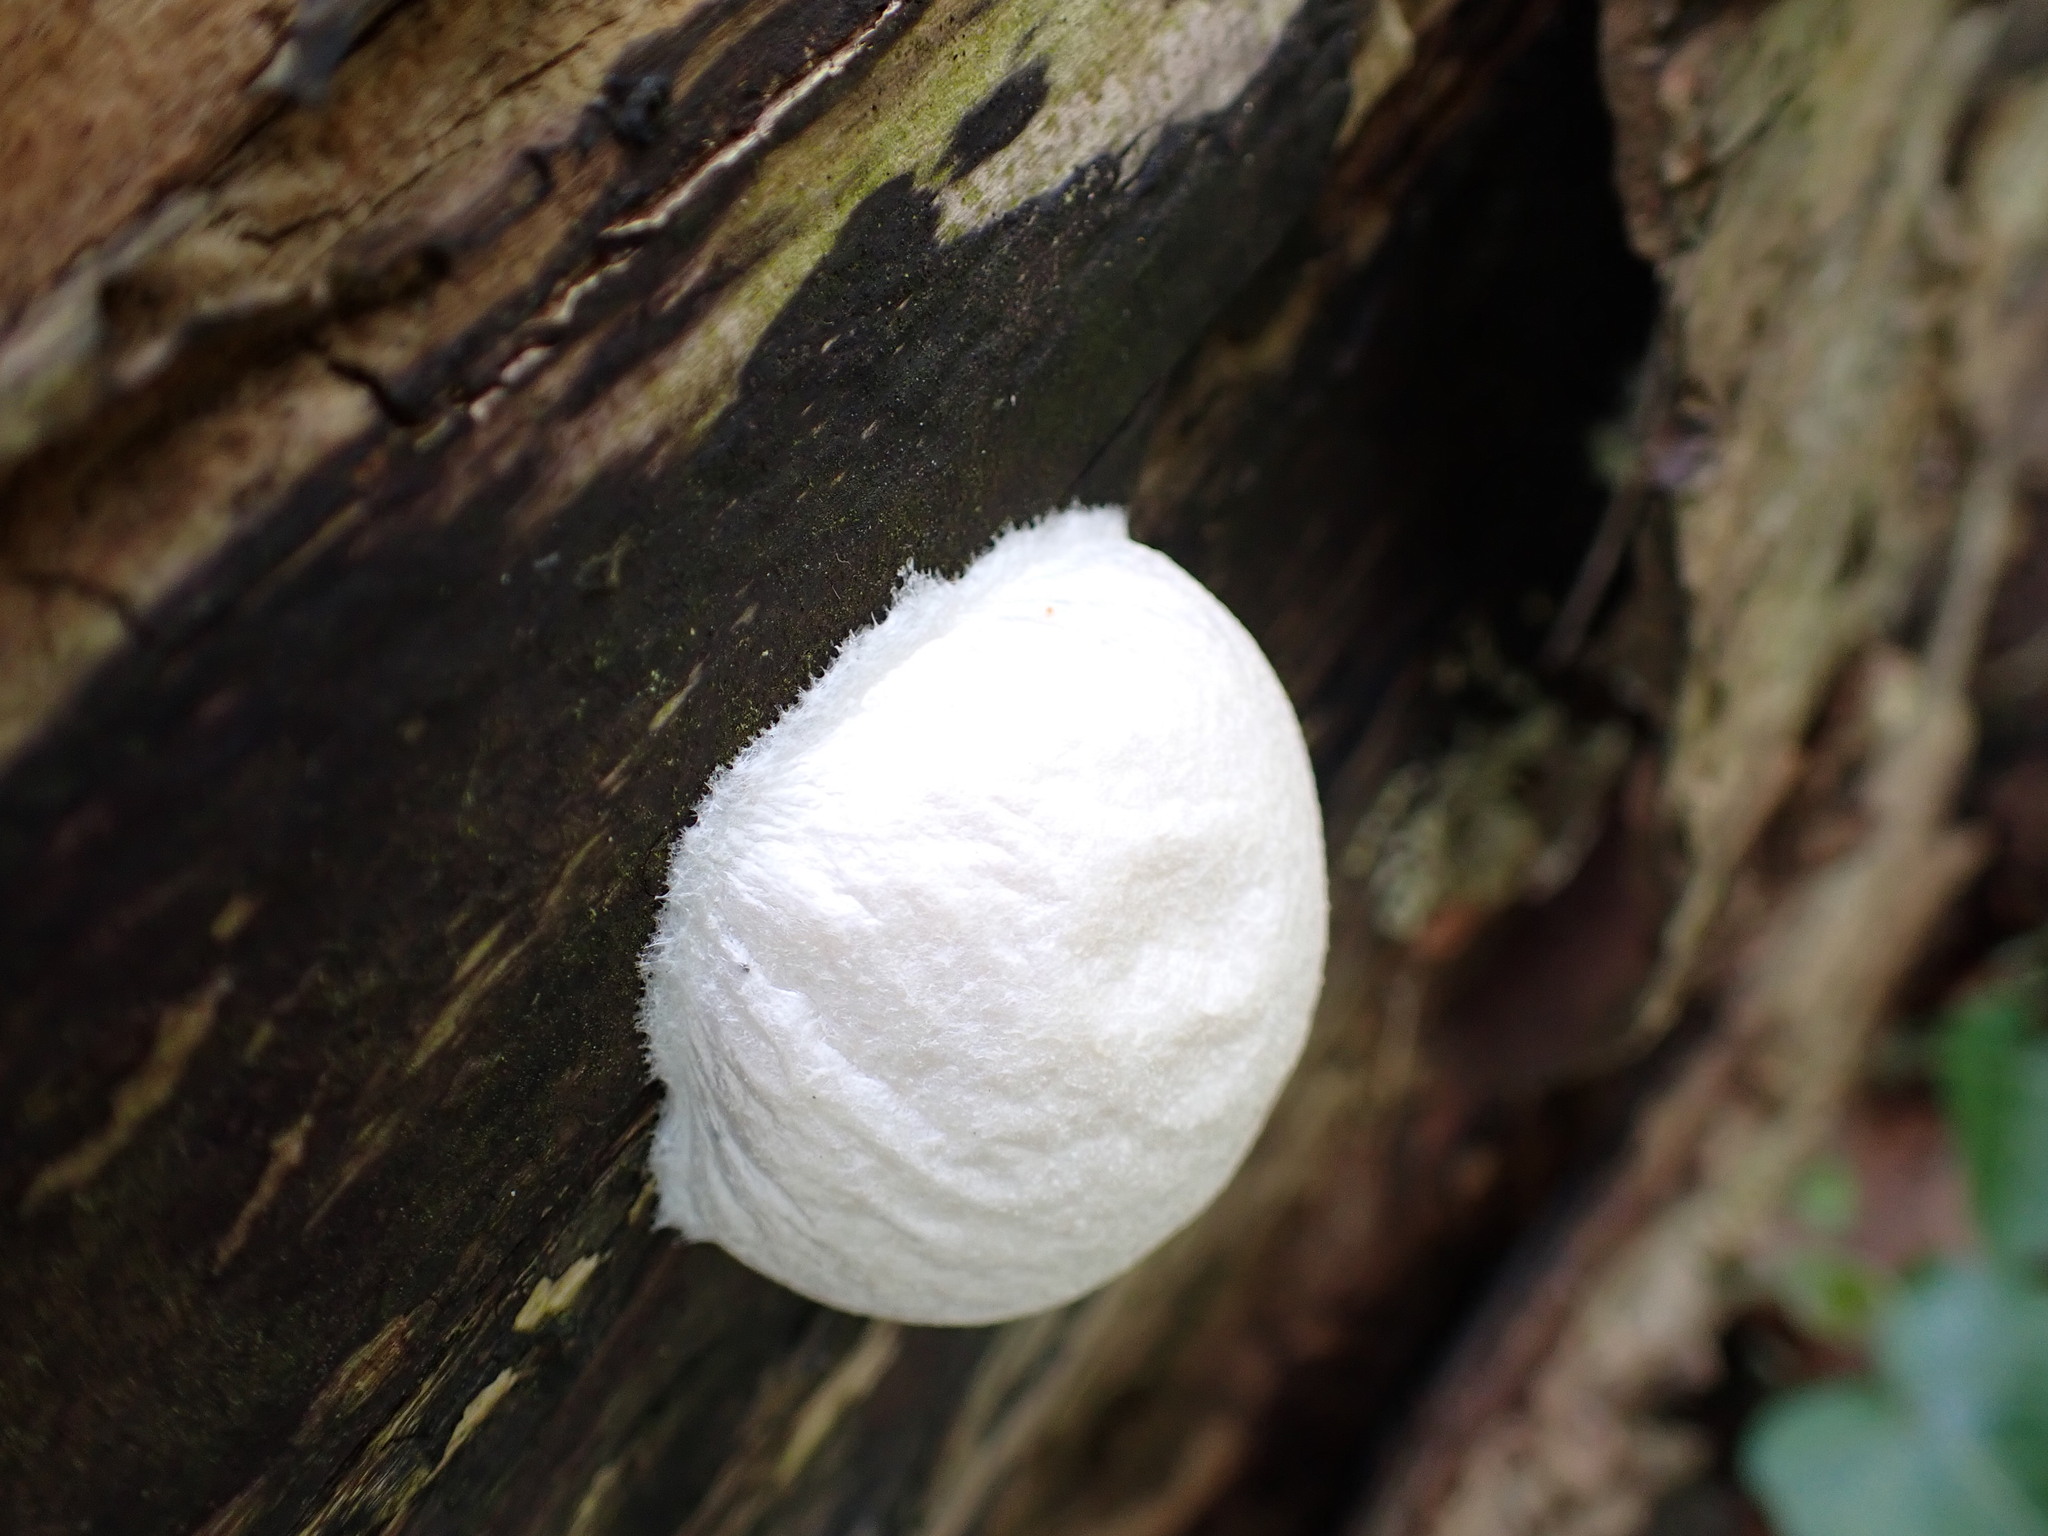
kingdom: Protozoa
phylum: Mycetozoa
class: Myxomycetes
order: Cribrariales
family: Tubiferaceae
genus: Reticularia
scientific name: Reticularia lycoperdon
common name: False puffball
